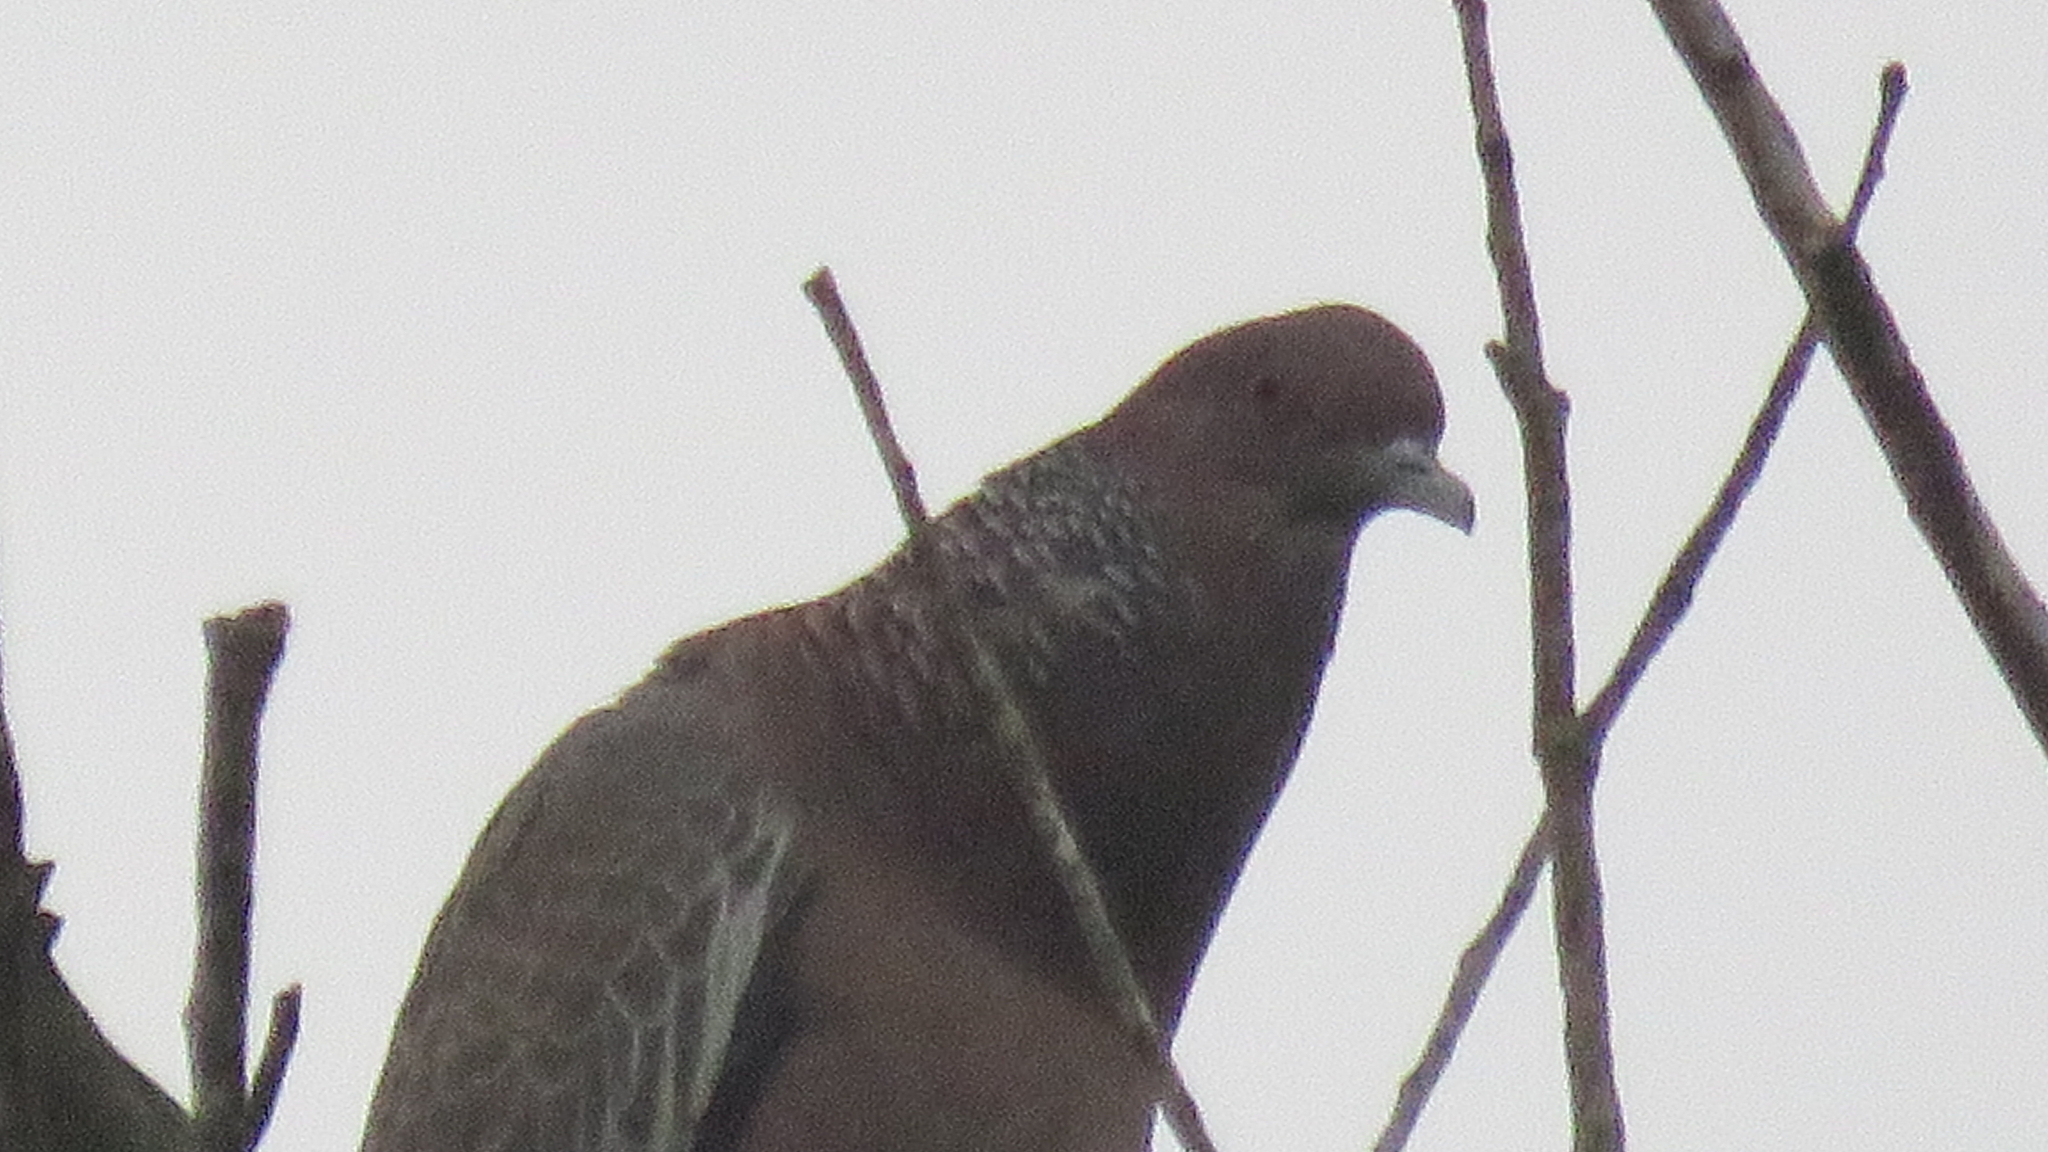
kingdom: Animalia
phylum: Chordata
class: Aves
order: Columbiformes
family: Columbidae
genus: Patagioenas
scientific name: Patagioenas picazuro
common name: Picazuro pigeon
